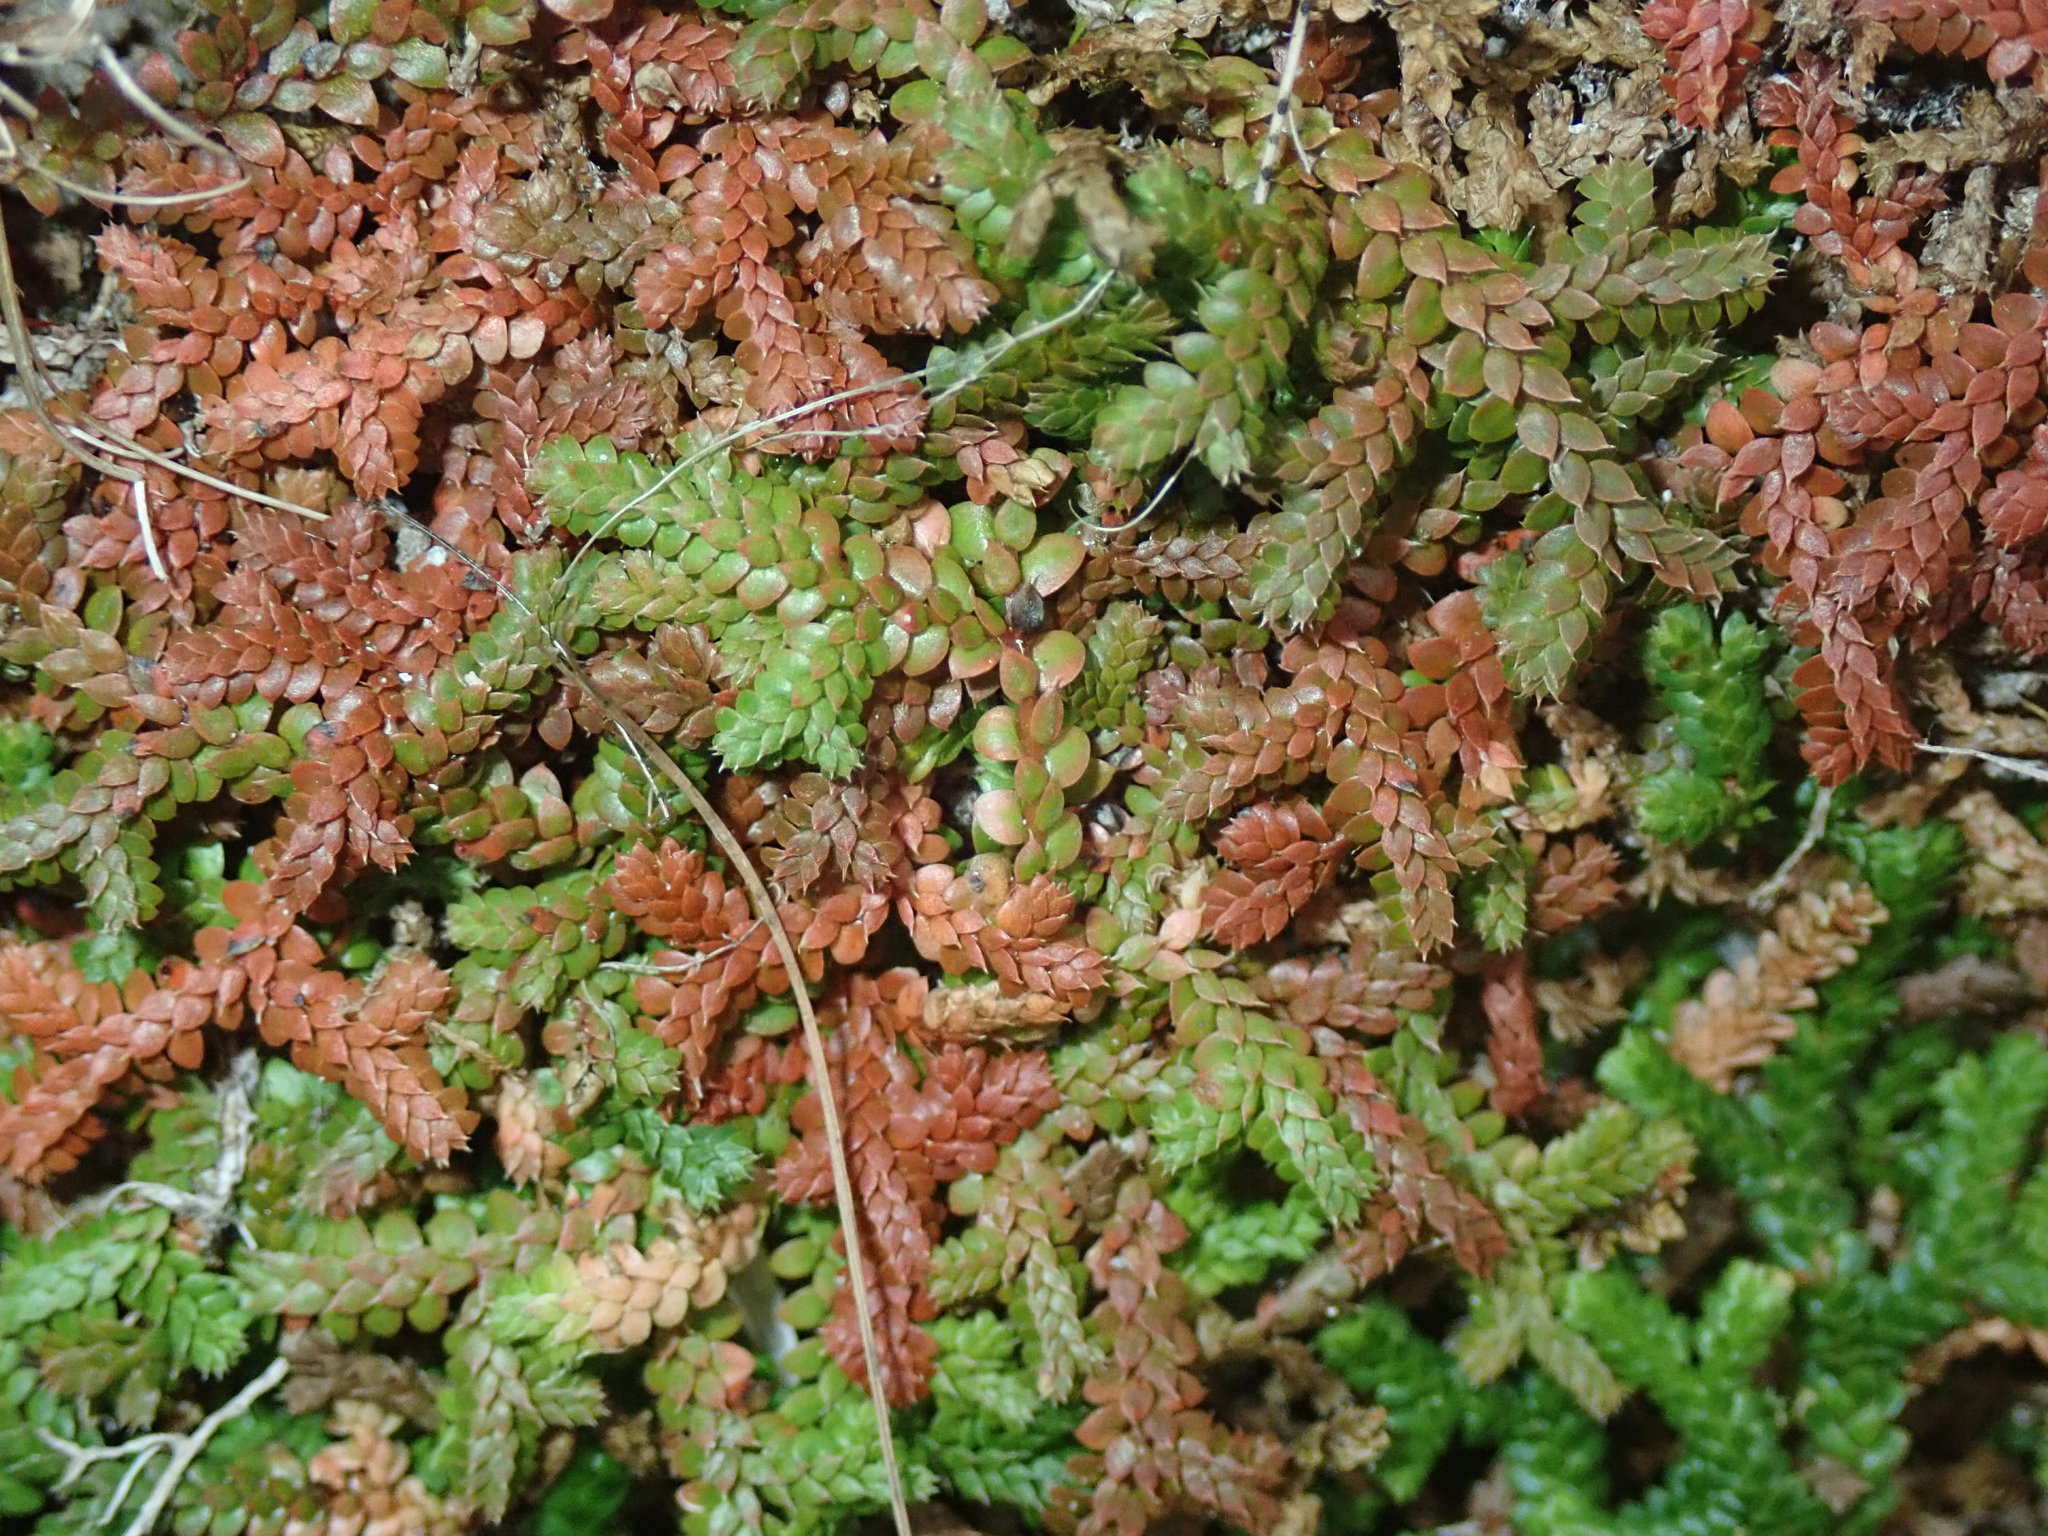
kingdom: Plantae
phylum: Tracheophyta
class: Lycopodiopsida
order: Selaginellales
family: Selaginellaceae
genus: Selaginella
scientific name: Selaginella denticulata
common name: Toothed-leaved clubmoss
